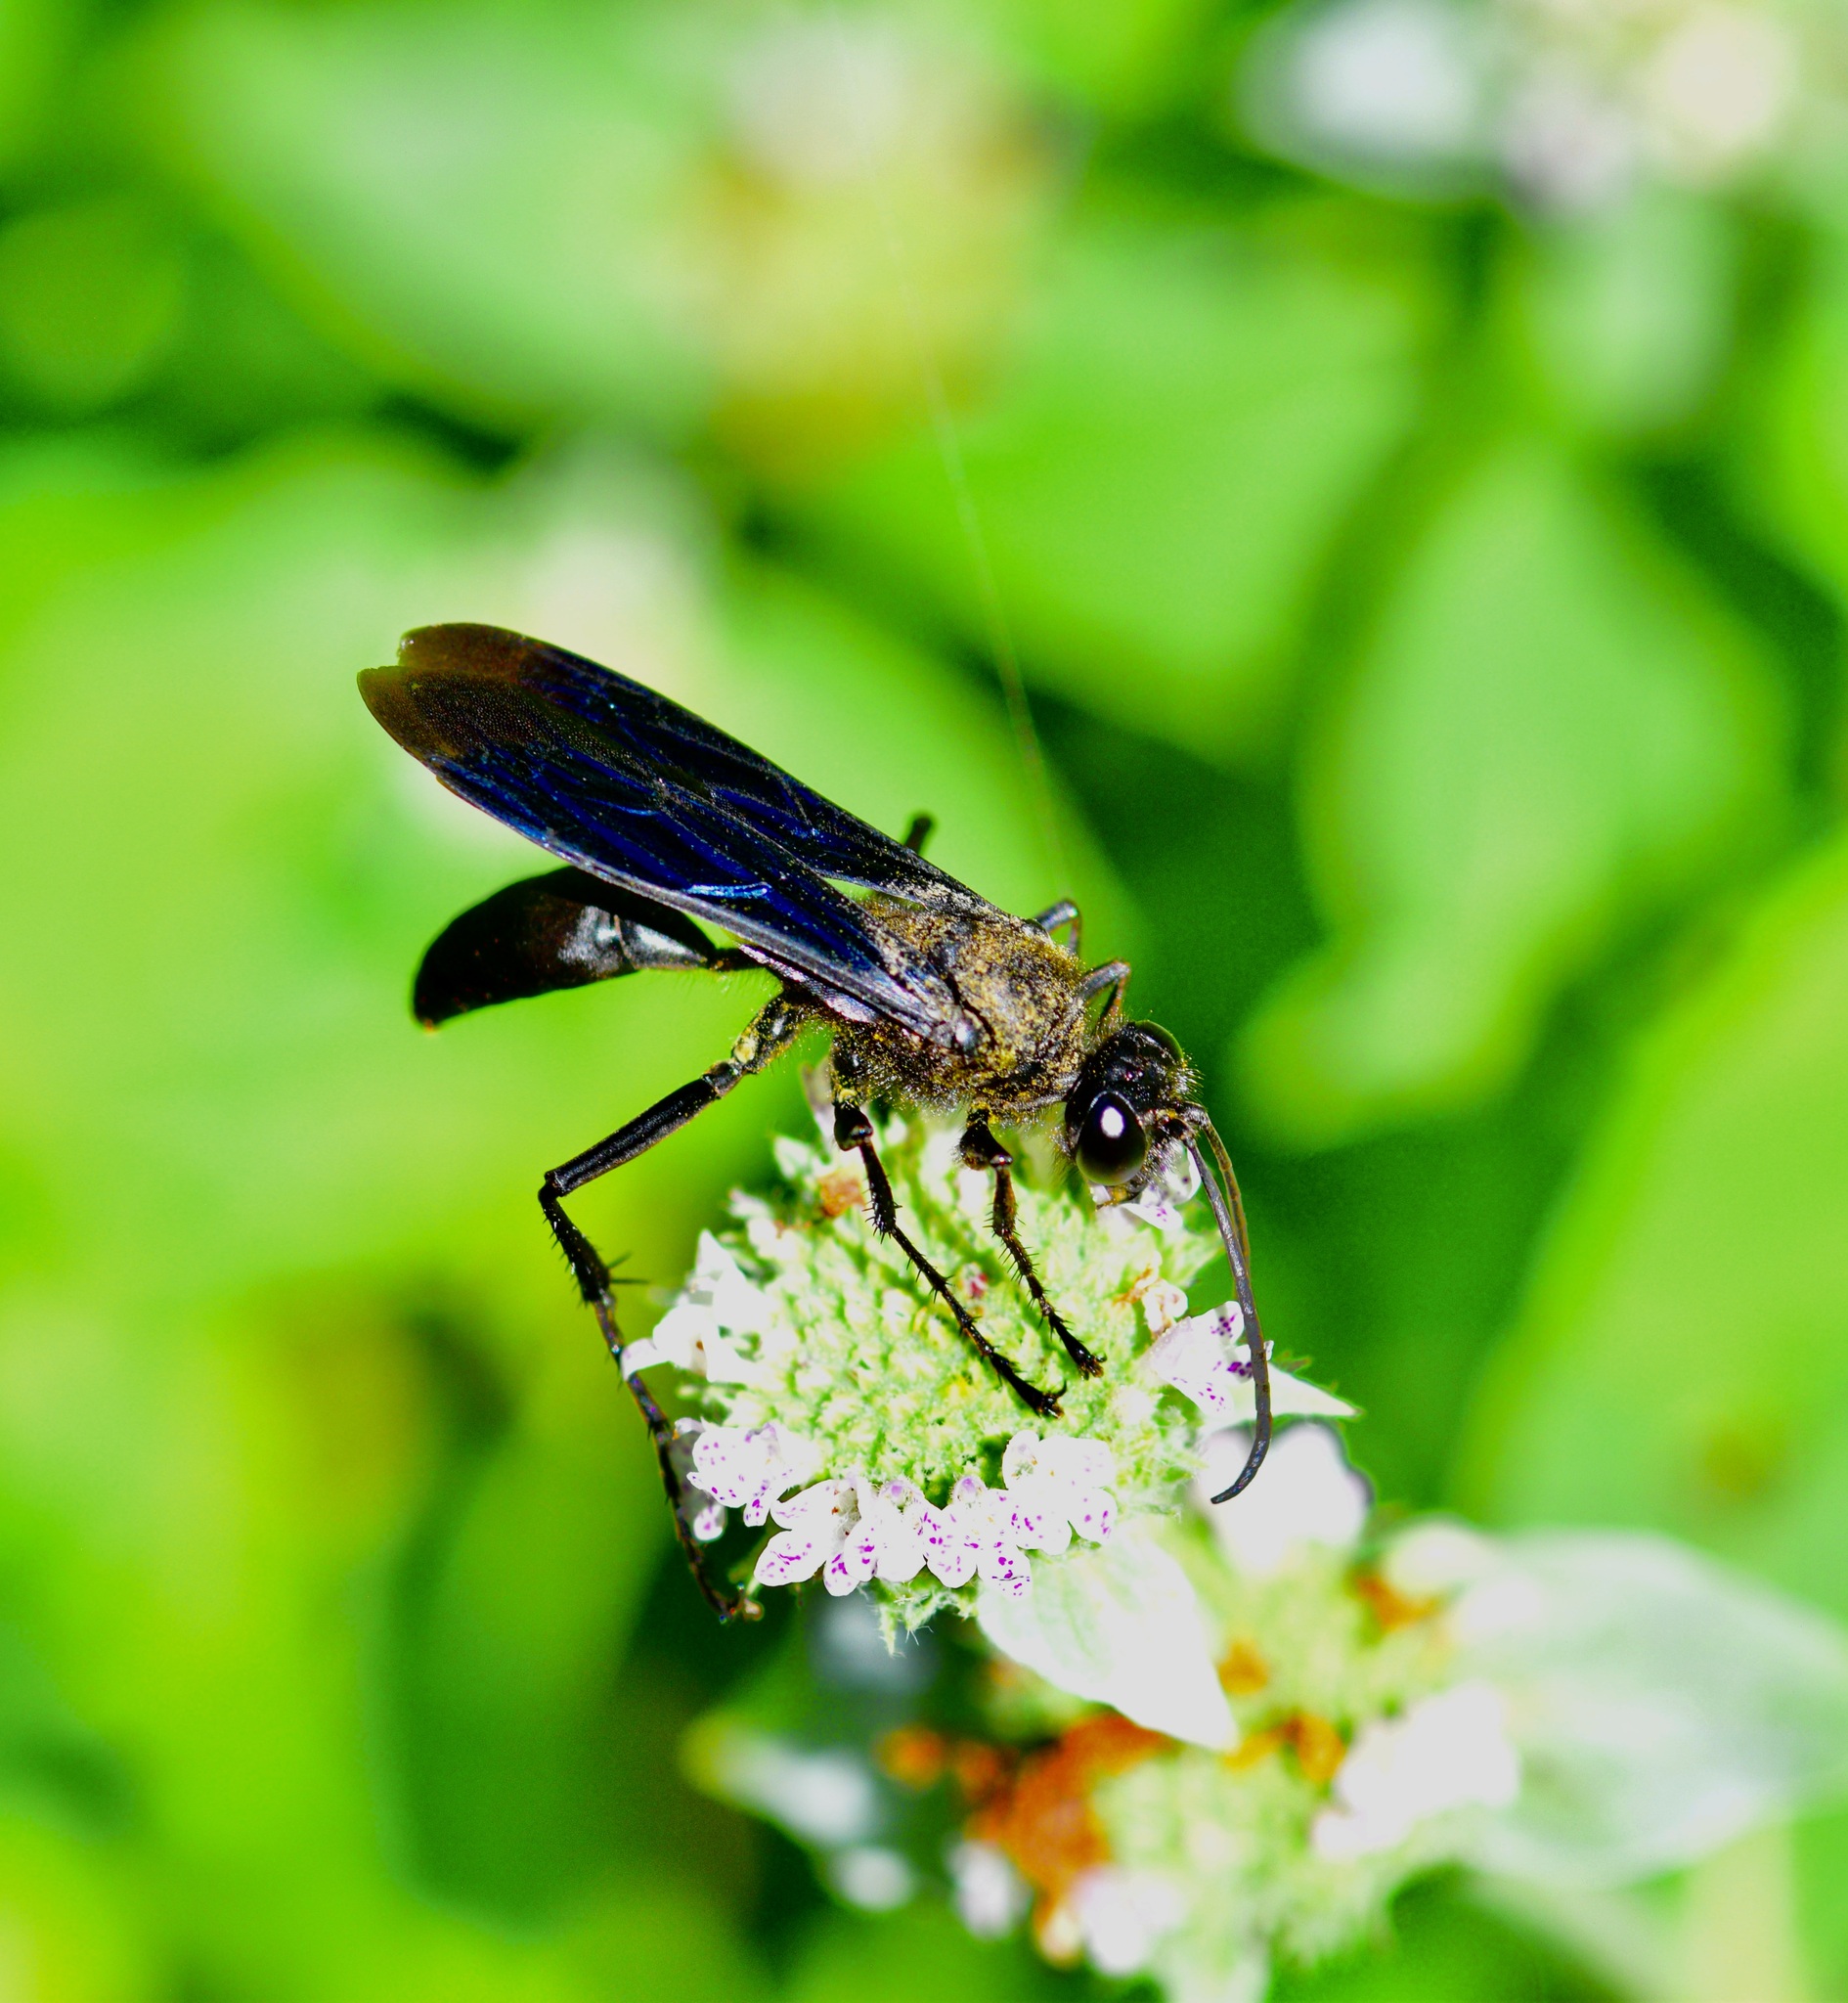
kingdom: Animalia
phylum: Arthropoda
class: Insecta
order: Hymenoptera
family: Sphecidae
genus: Sphex
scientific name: Sphex pensylvanicus
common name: Great black digger wasp
